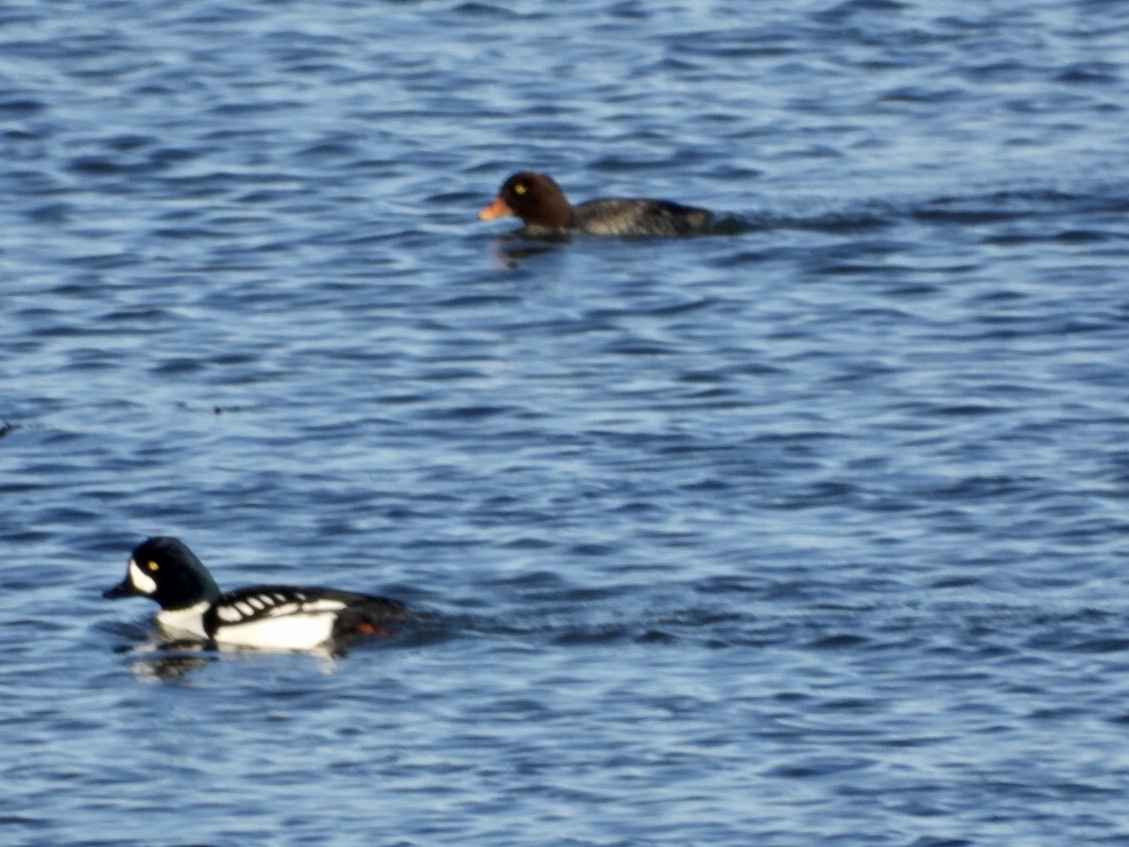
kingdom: Animalia
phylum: Chordata
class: Aves
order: Anseriformes
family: Anatidae
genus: Bucephala
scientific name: Bucephala islandica
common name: Barrow's goldeneye
